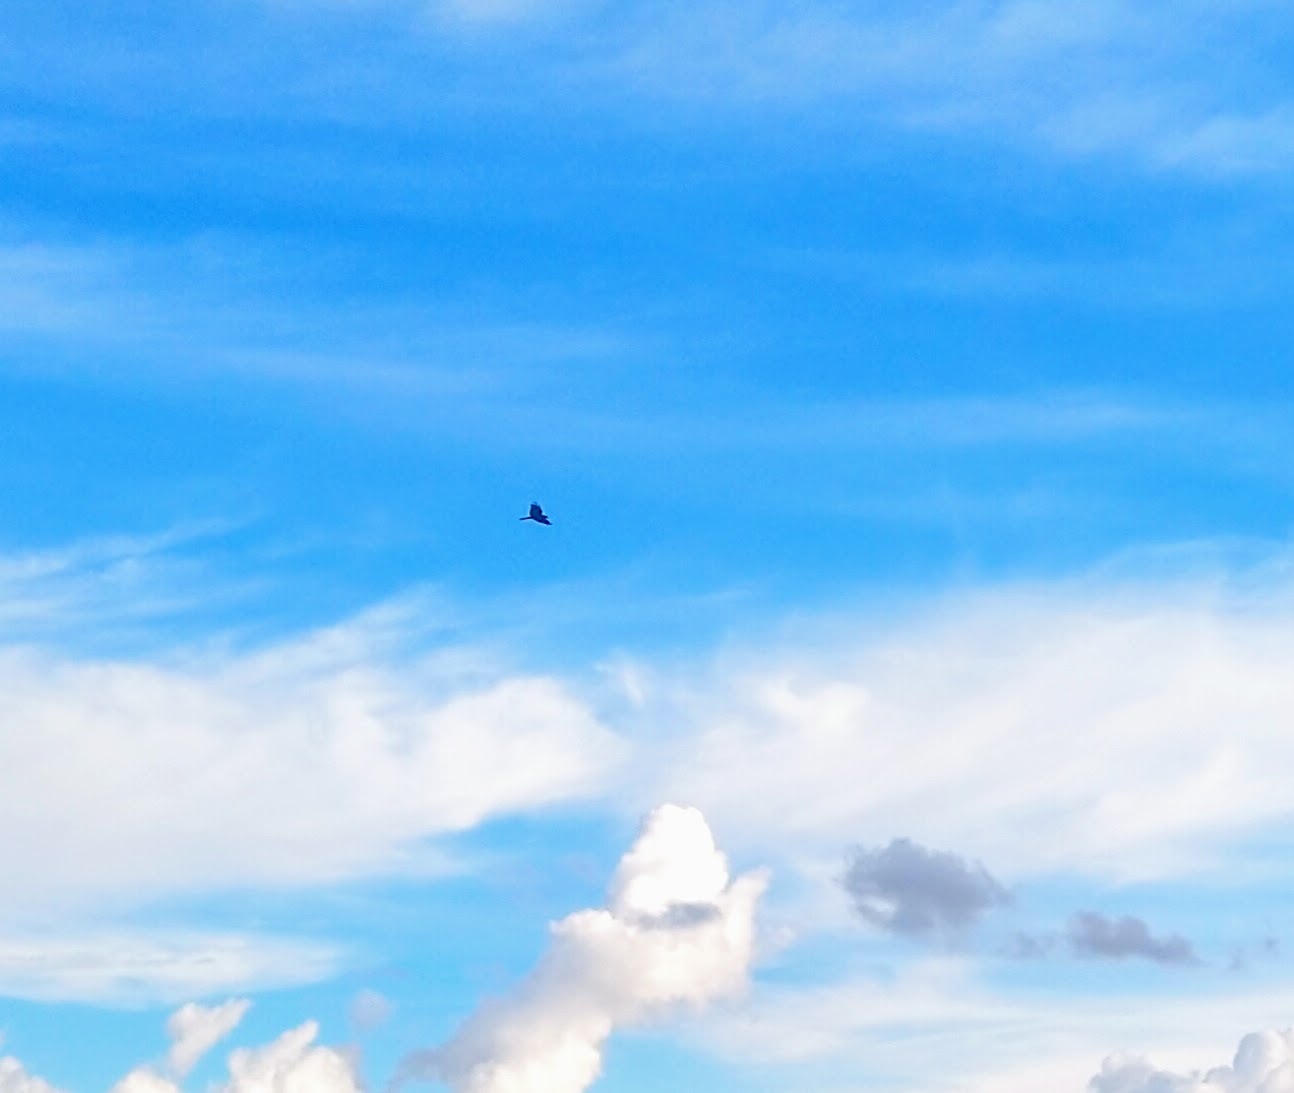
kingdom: Animalia
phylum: Chordata
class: Aves
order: Accipitriformes
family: Accipitridae
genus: Milvus
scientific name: Milvus migrans
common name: Black kite
